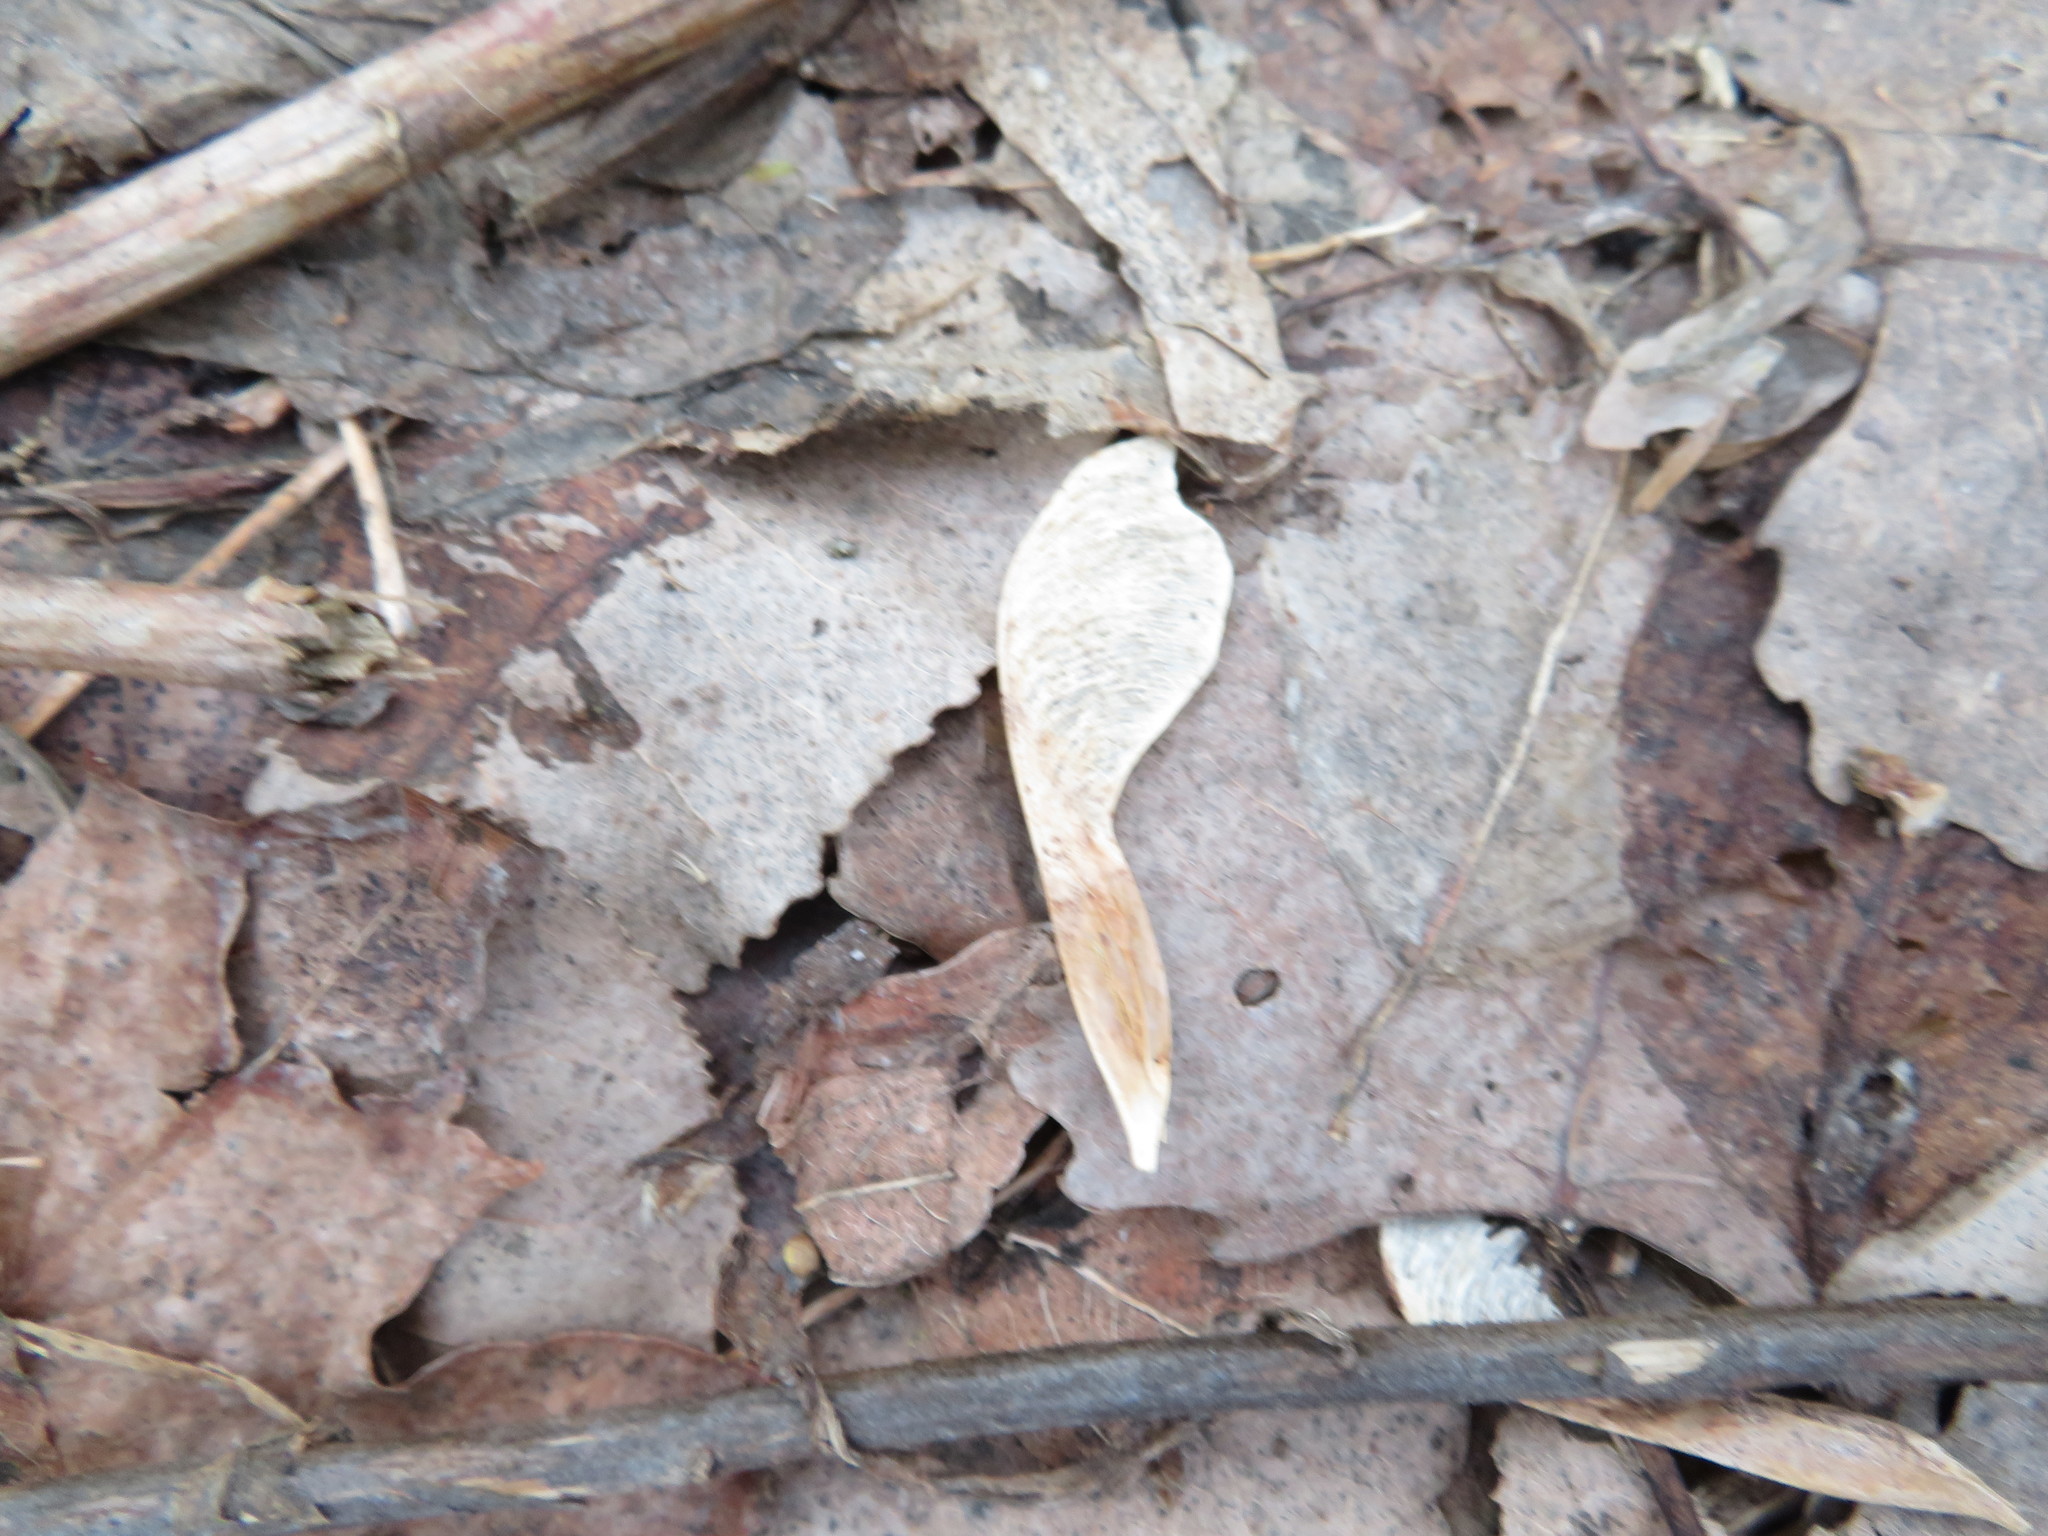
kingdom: Plantae
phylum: Tracheophyta
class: Magnoliopsida
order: Sapindales
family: Sapindaceae
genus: Acer
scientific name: Acer platanoides
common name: Norway maple
